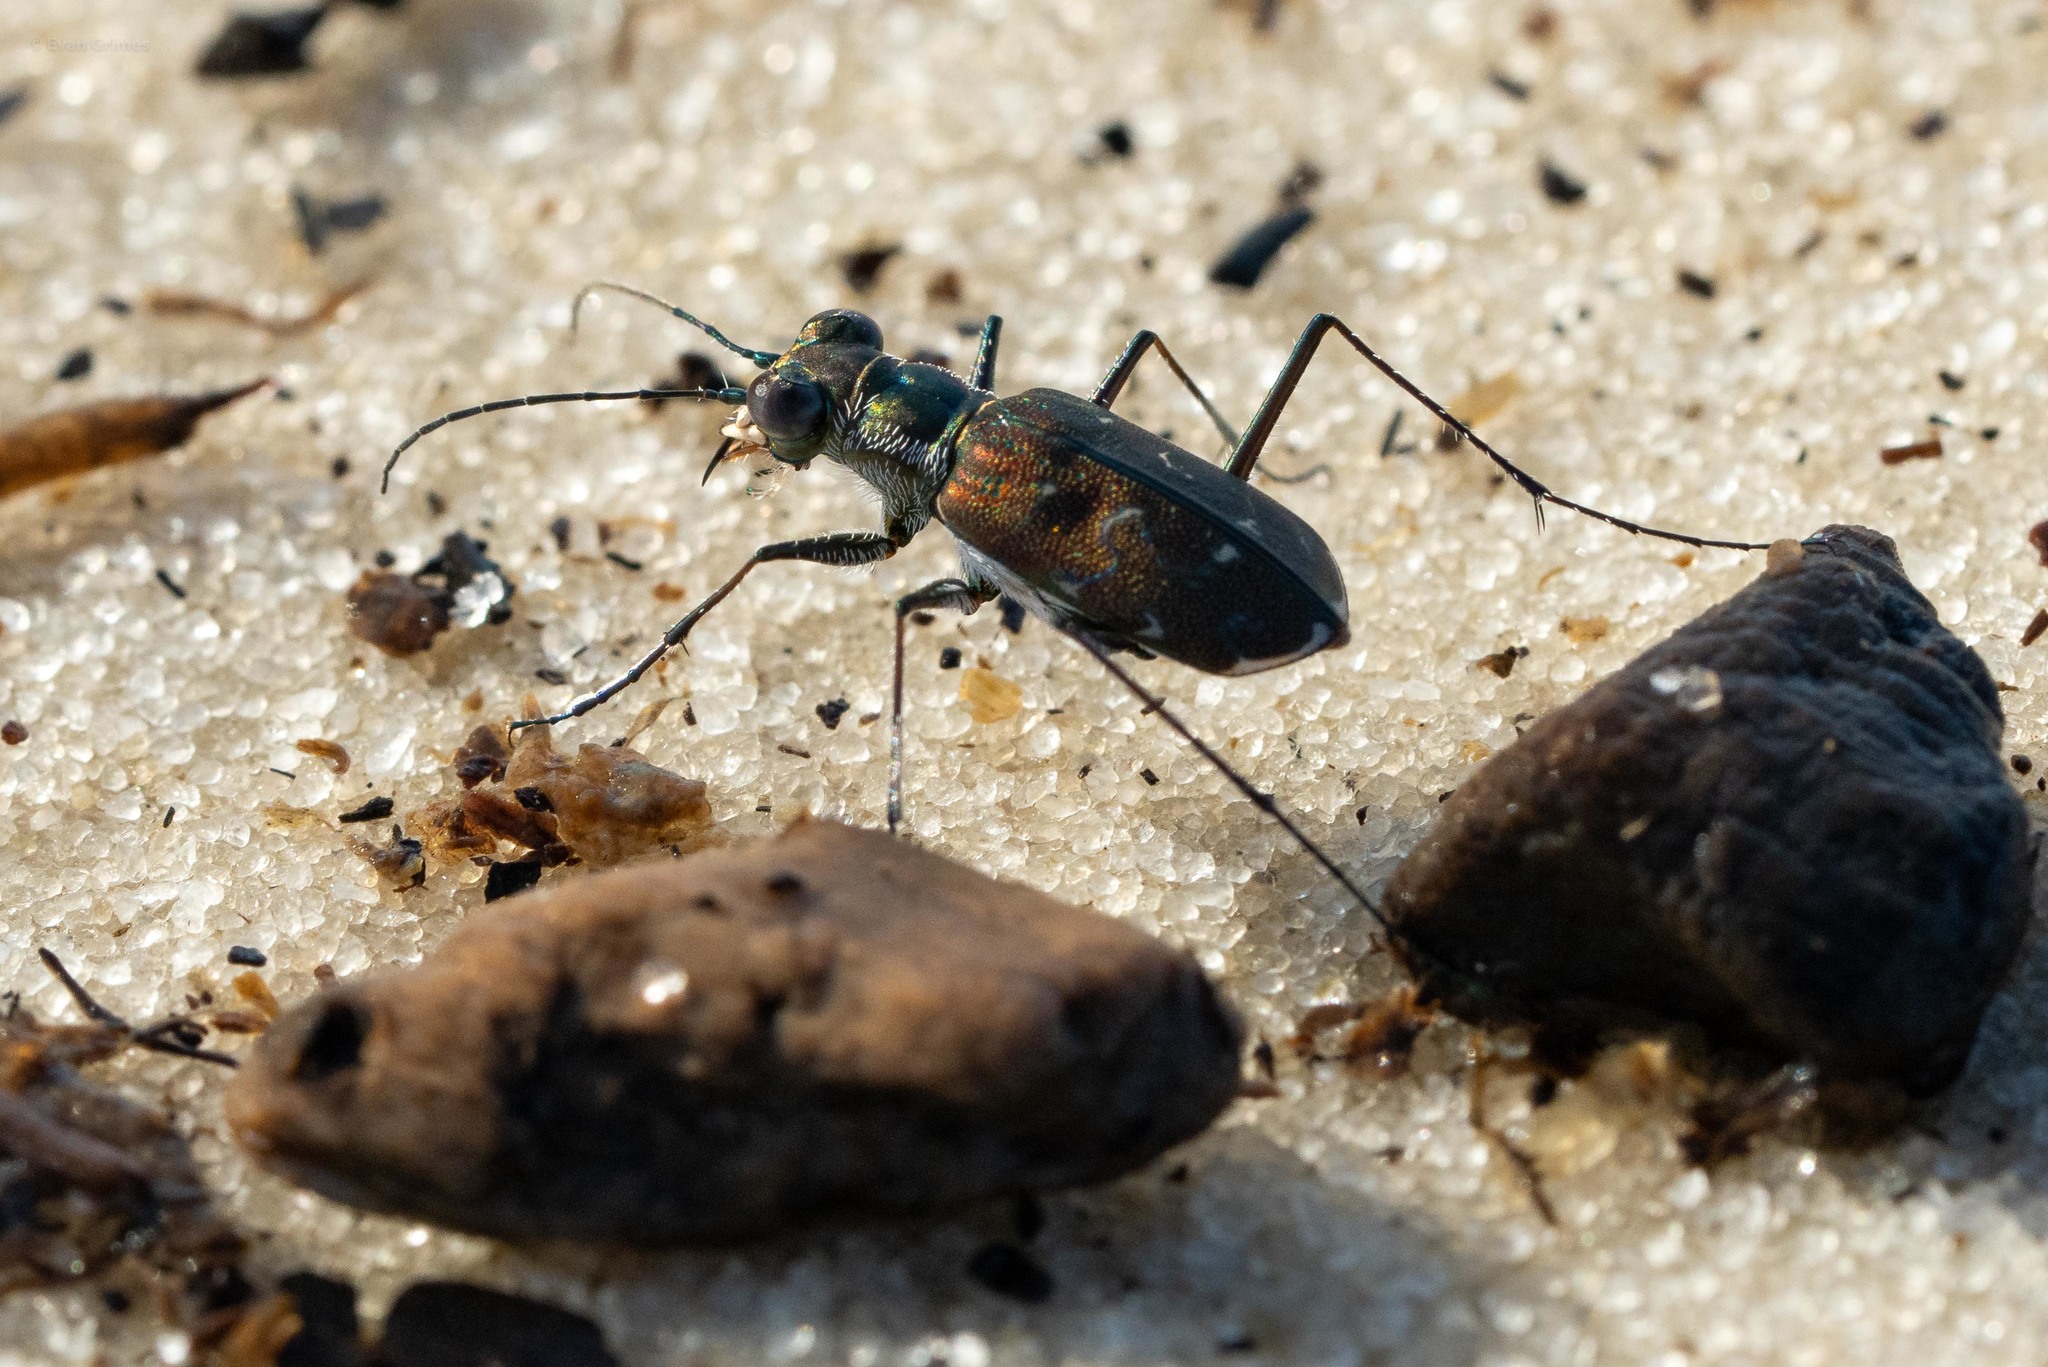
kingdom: Animalia
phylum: Arthropoda
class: Insecta
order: Coleoptera
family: Carabidae
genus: Cicindela
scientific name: Cicindela trifasciata
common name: Mudflat tiger beetle
